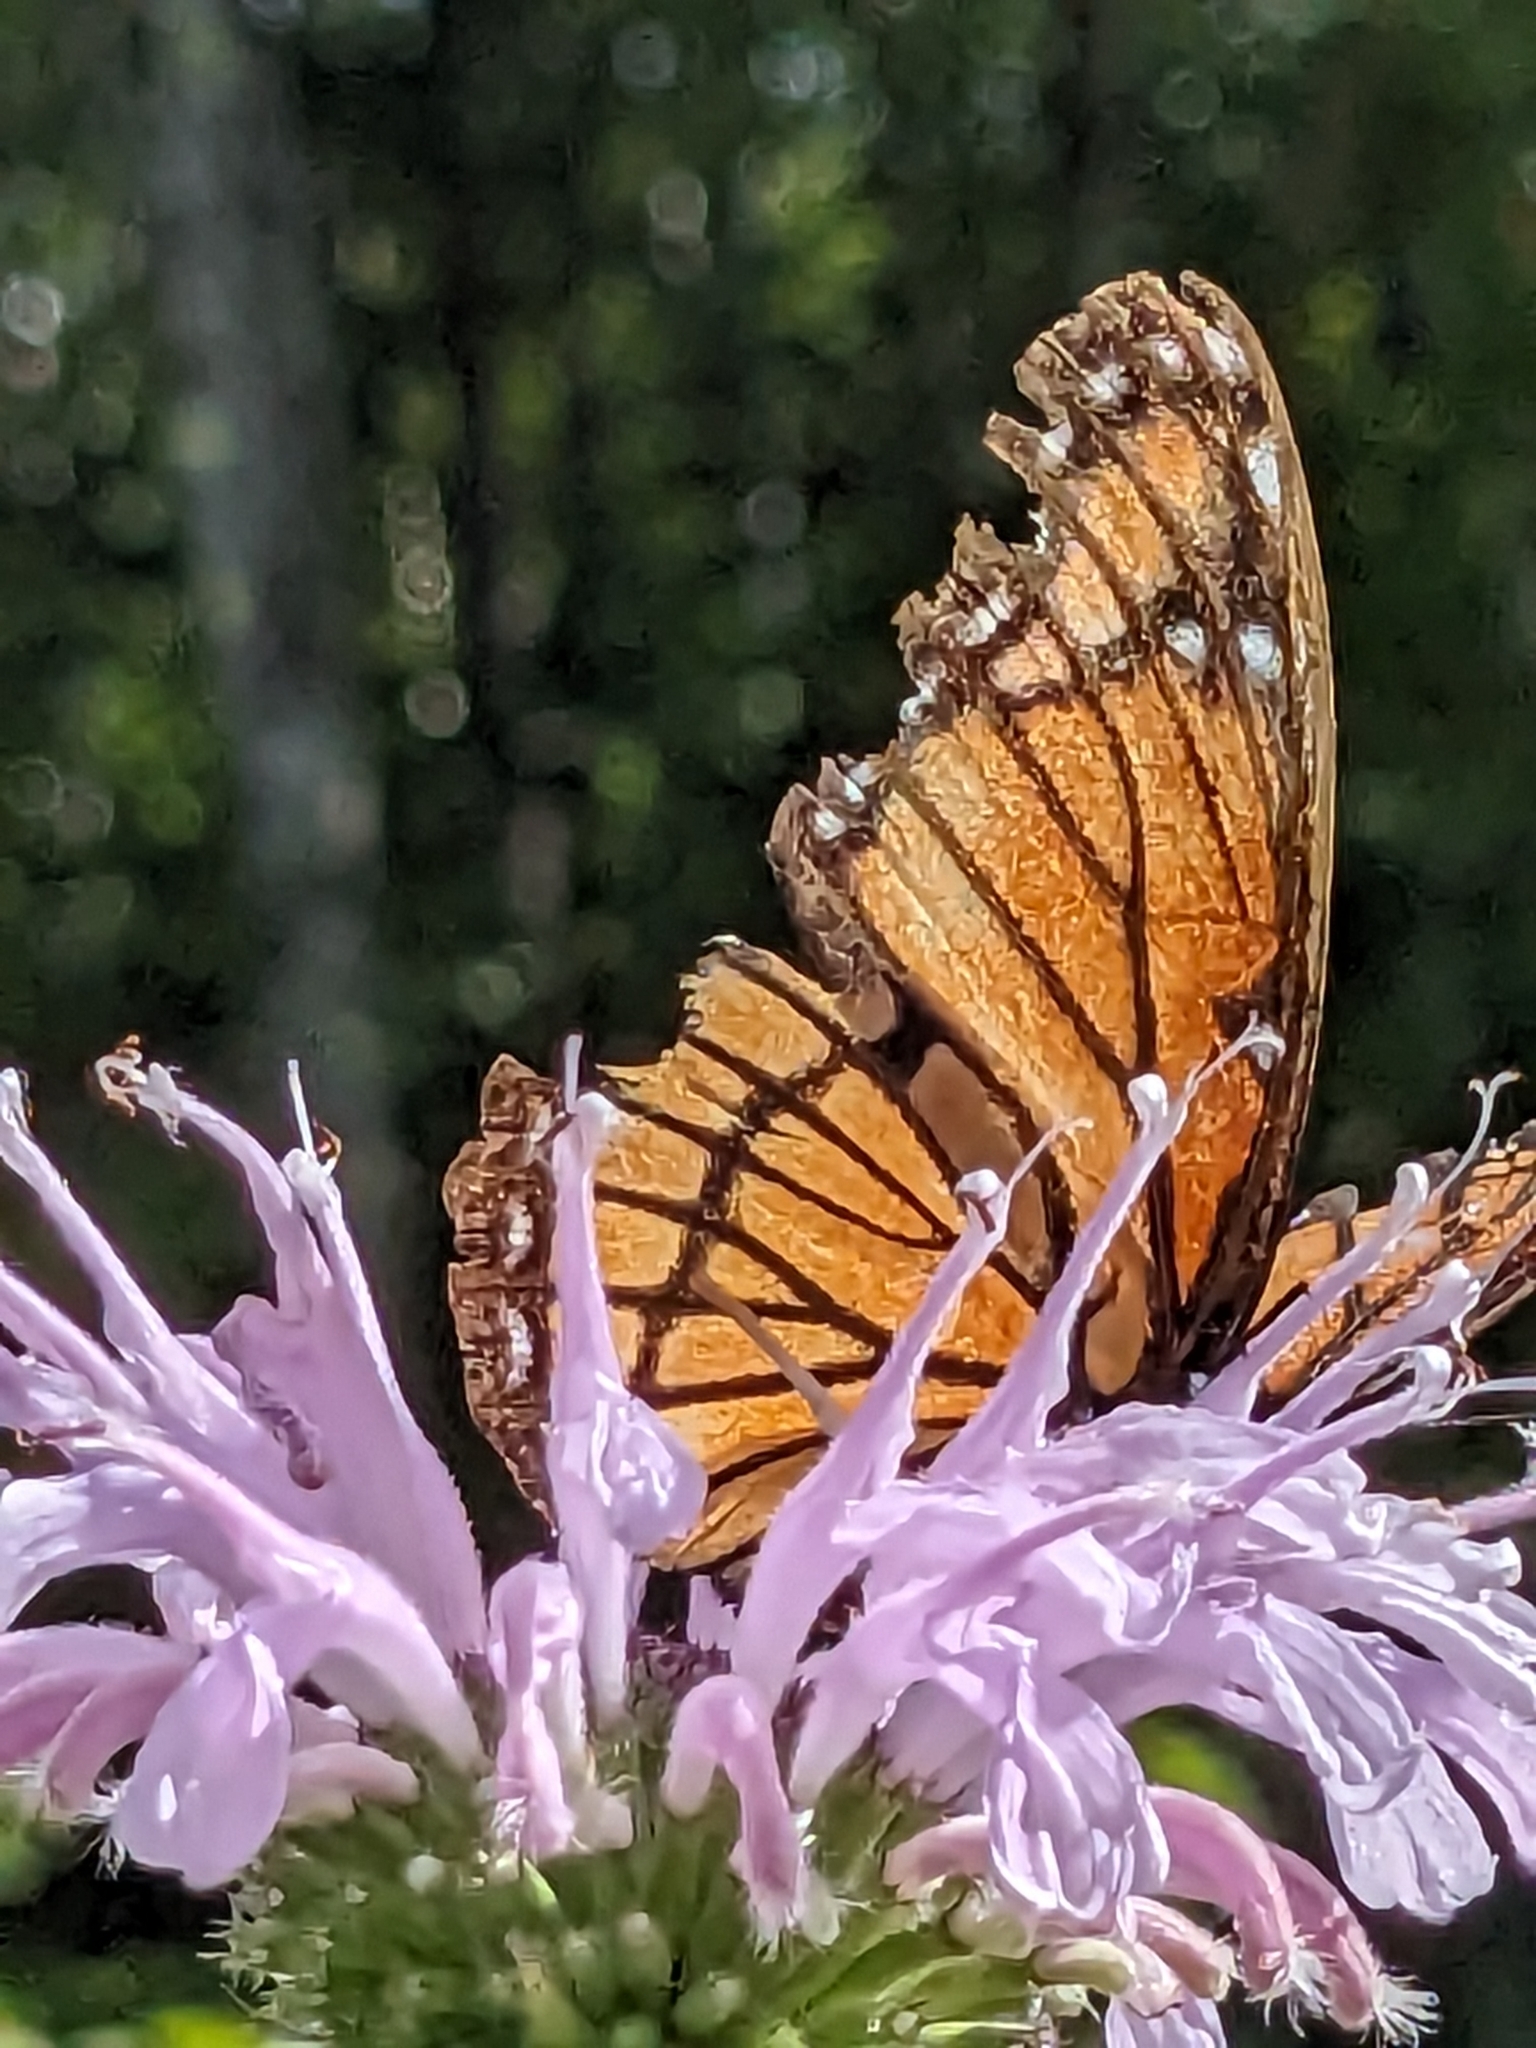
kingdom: Animalia
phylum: Arthropoda
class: Insecta
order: Lepidoptera
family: Nymphalidae
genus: Limenitis
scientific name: Limenitis archippus
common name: Viceroy
